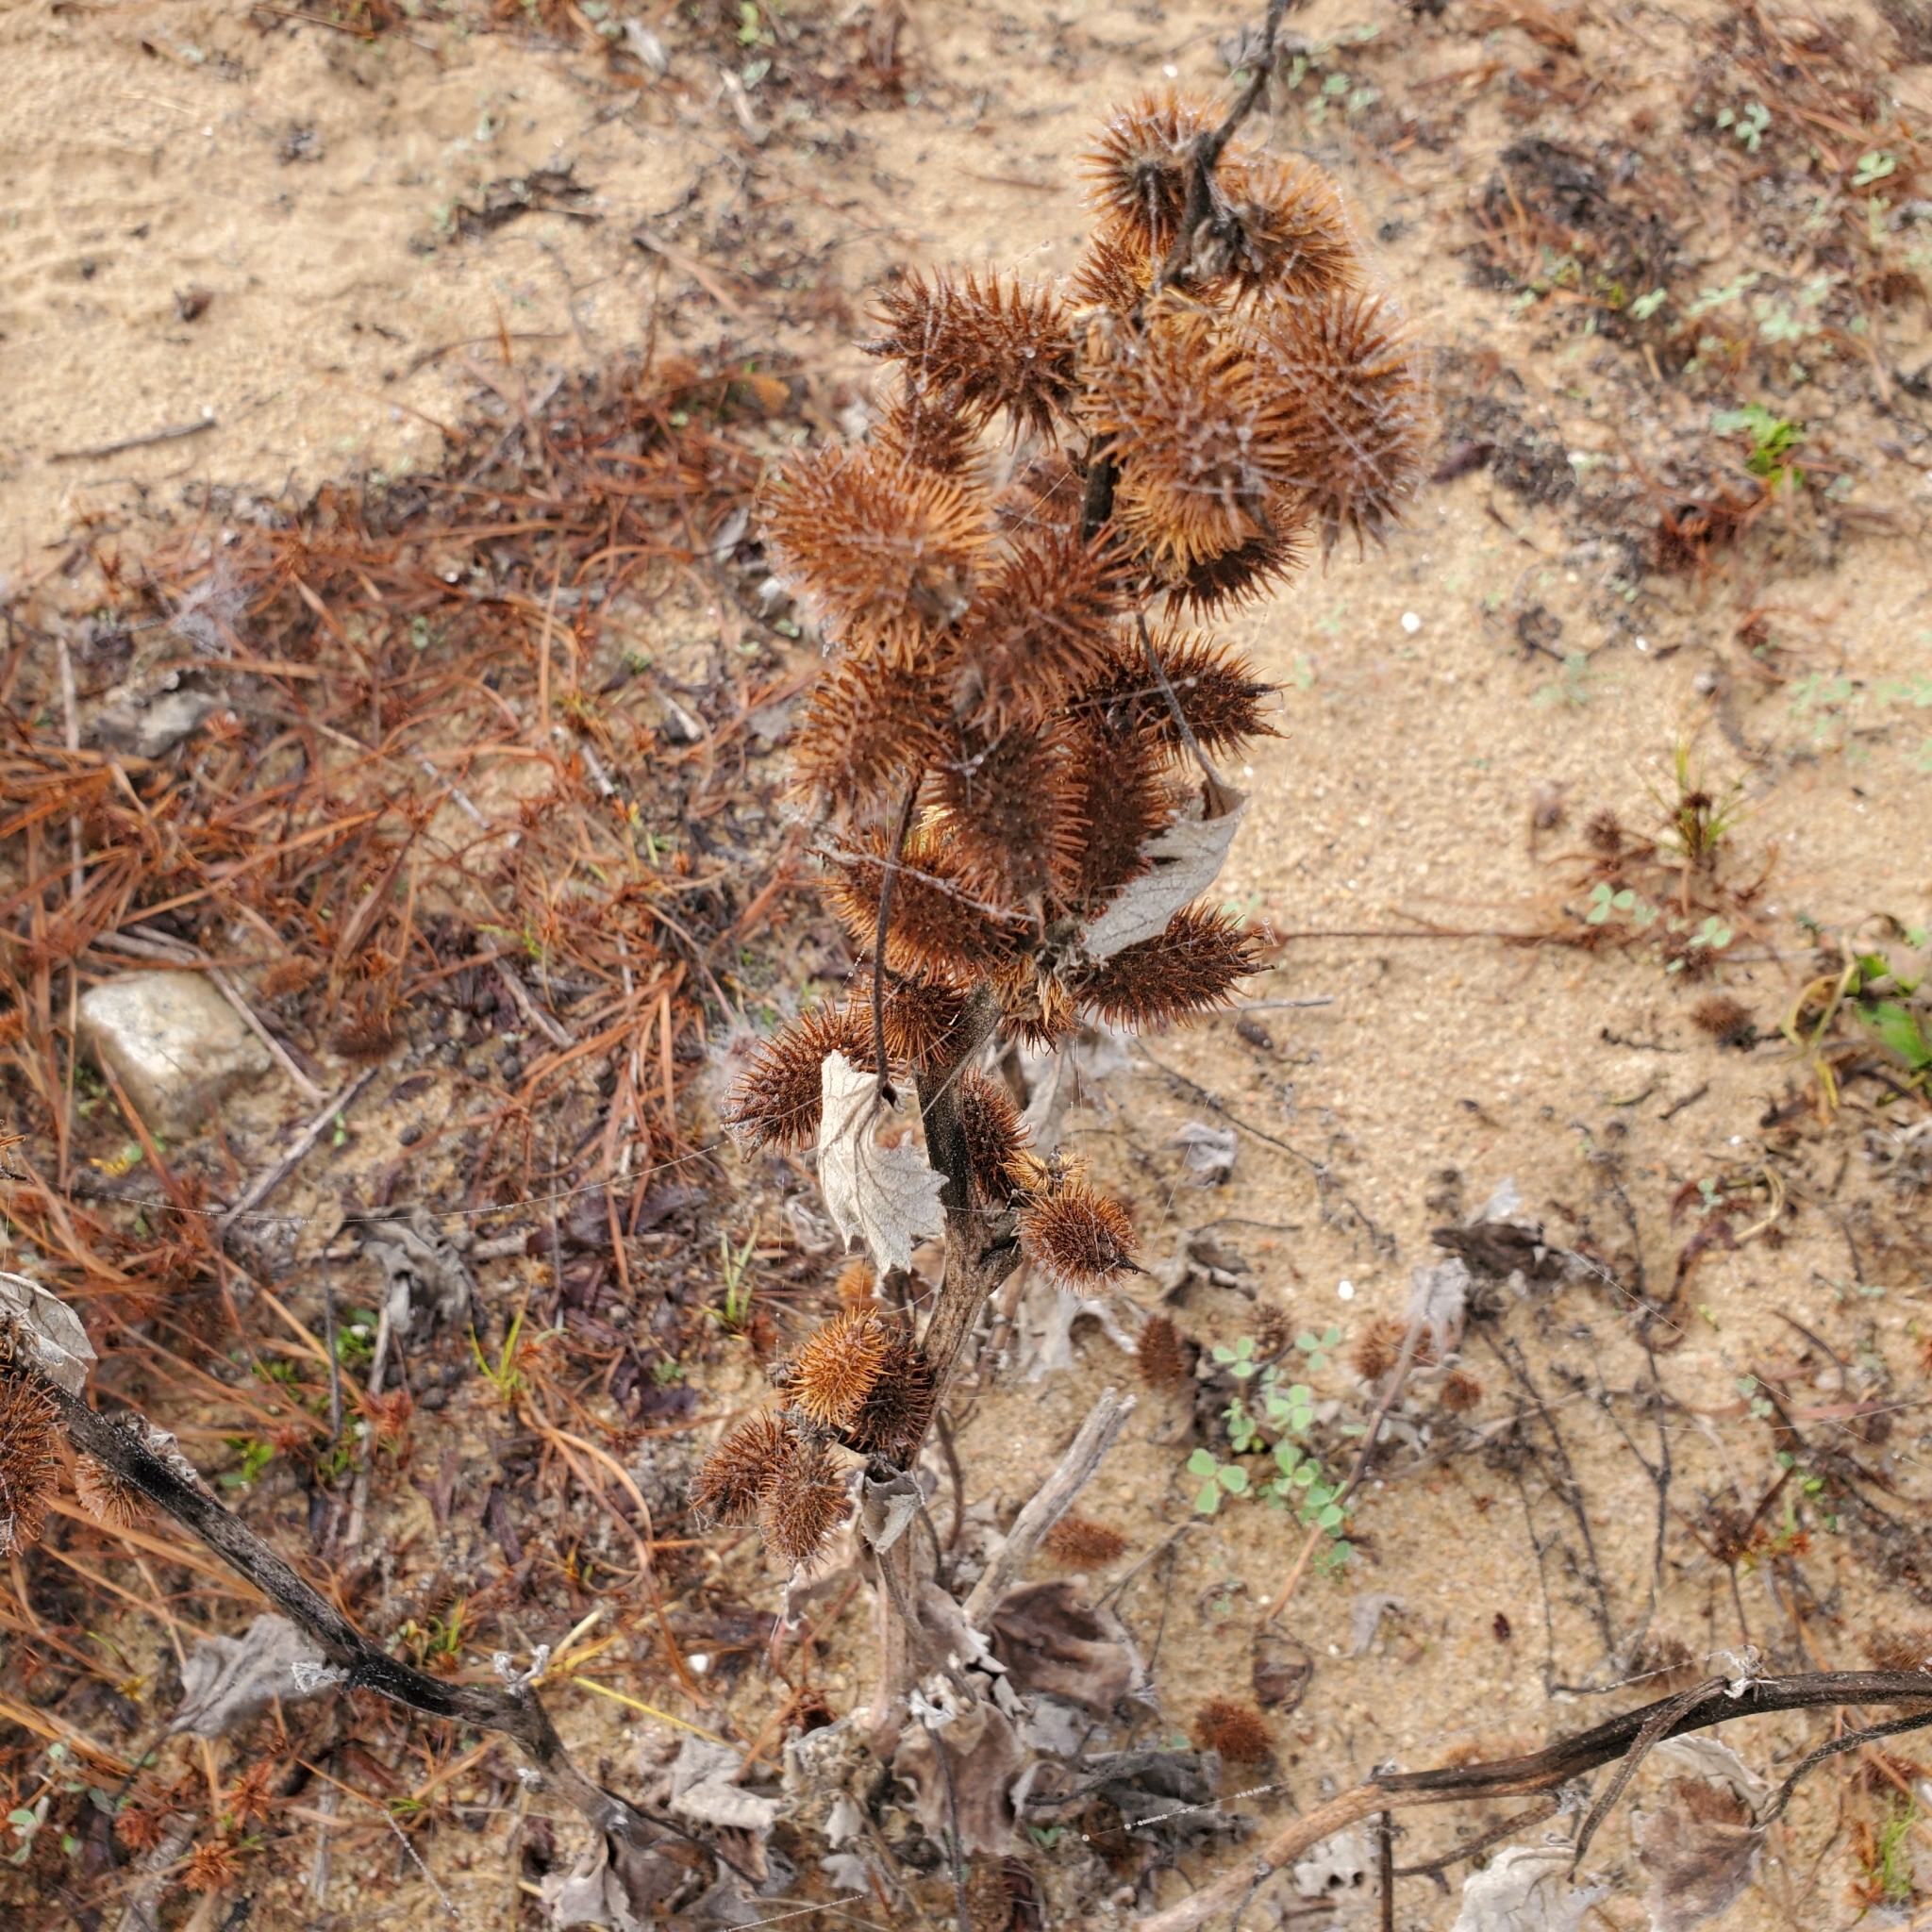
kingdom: Plantae
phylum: Tracheophyta
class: Magnoliopsida
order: Asterales
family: Asteraceae
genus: Xanthium
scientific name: Xanthium strumarium
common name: Rough cocklebur
